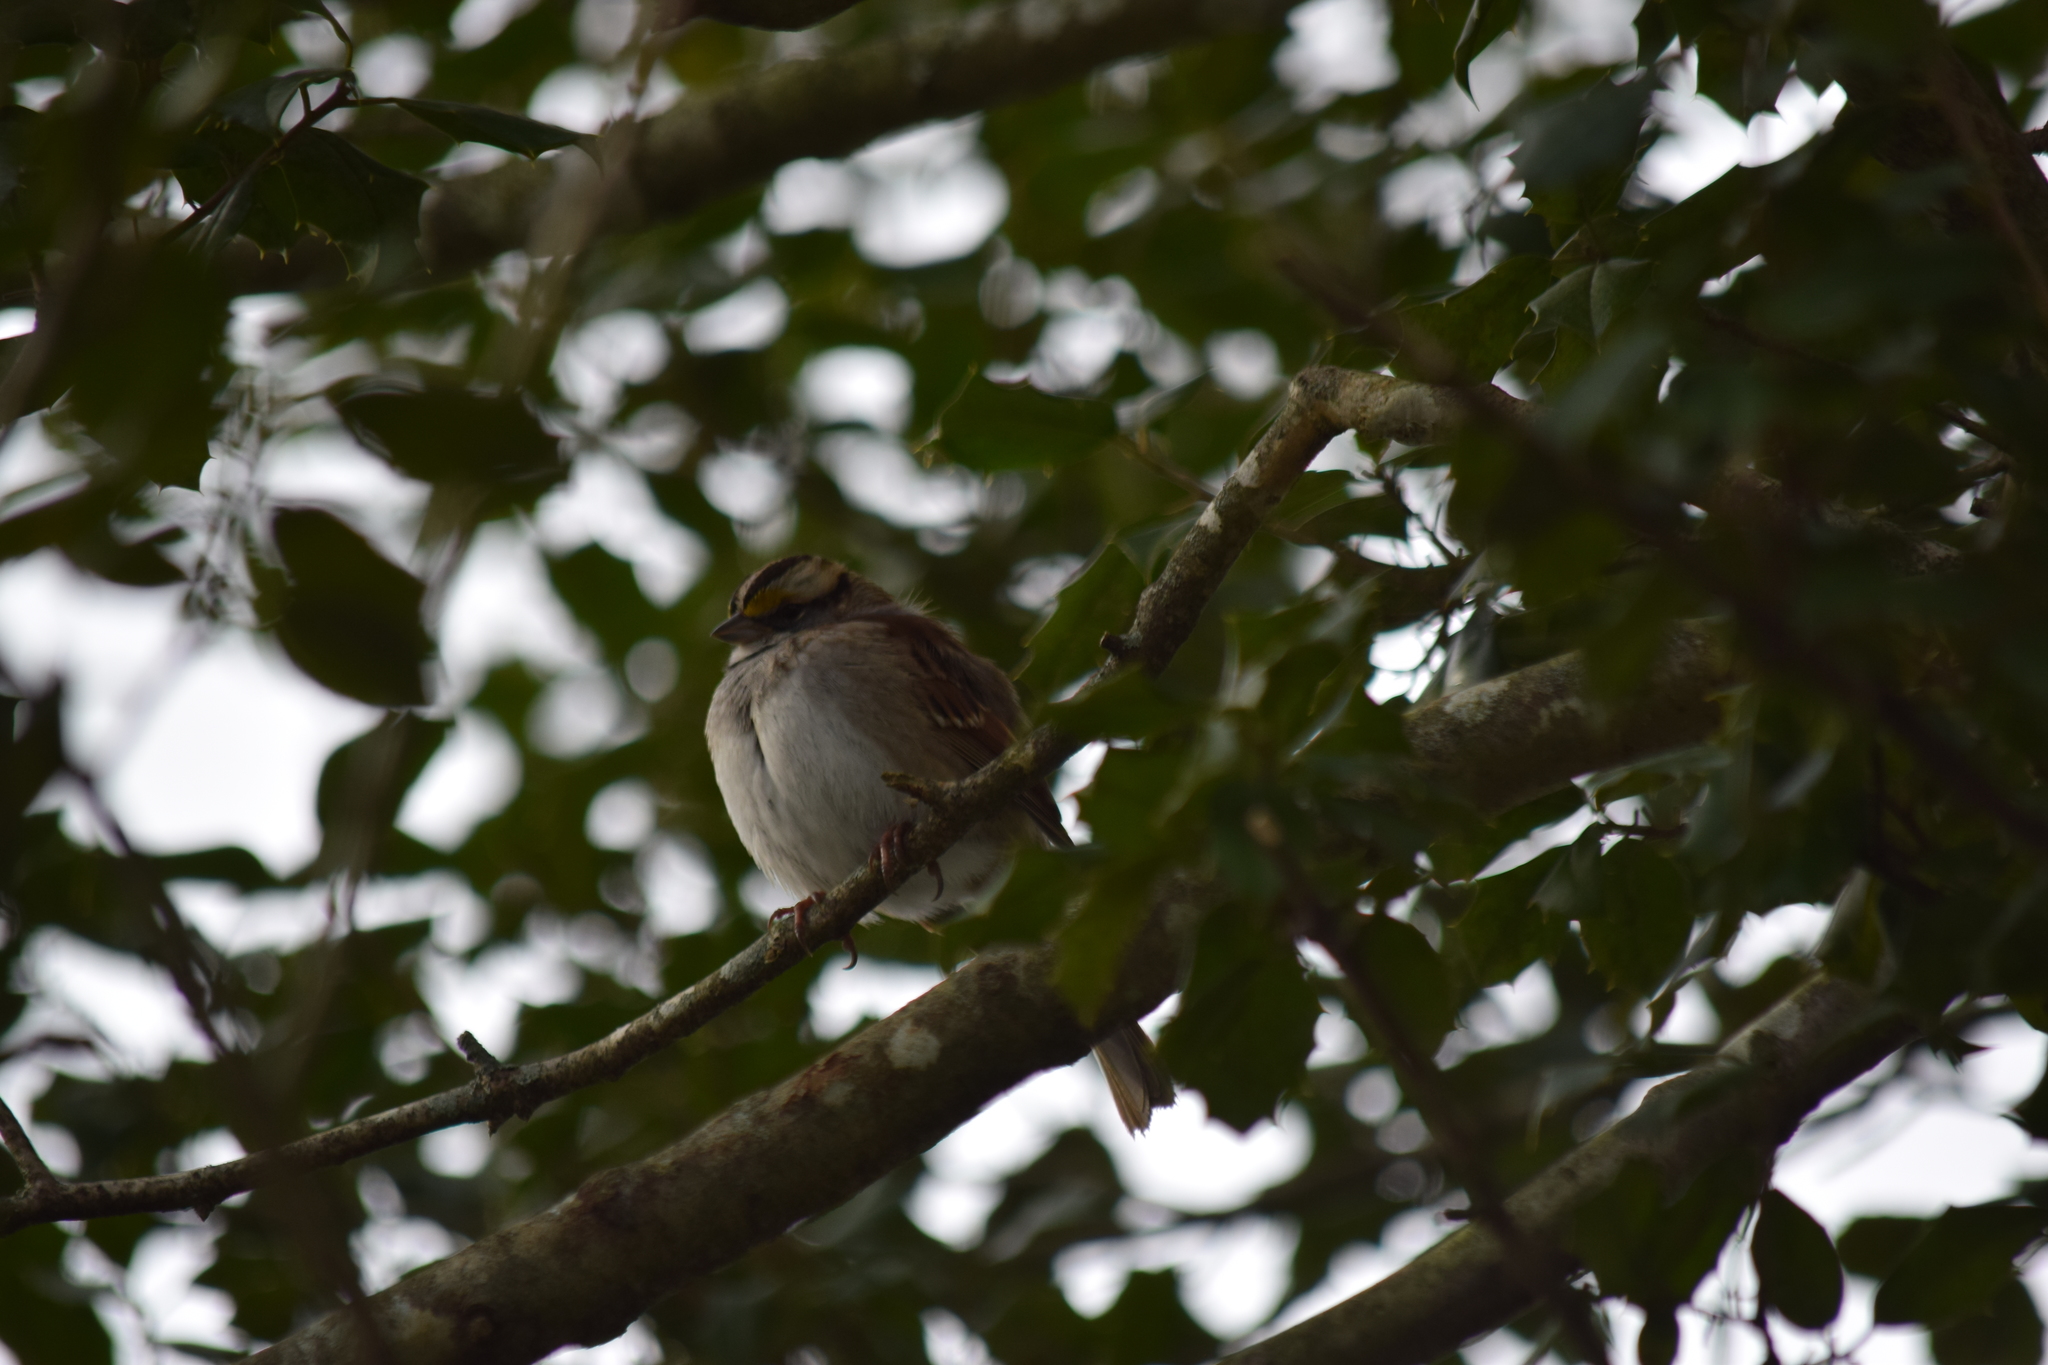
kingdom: Animalia
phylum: Chordata
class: Aves
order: Passeriformes
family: Passerellidae
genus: Zonotrichia
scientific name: Zonotrichia albicollis
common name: White-throated sparrow
